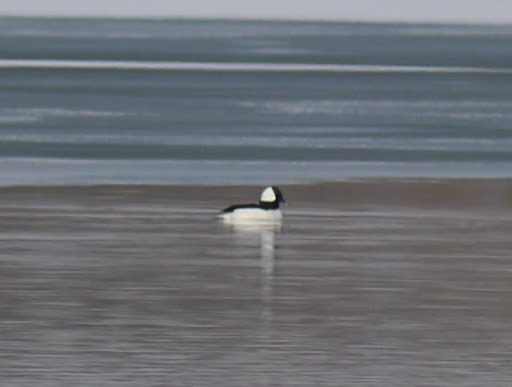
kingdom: Animalia
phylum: Chordata
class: Aves
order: Anseriformes
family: Anatidae
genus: Bucephala
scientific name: Bucephala albeola
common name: Bufflehead
